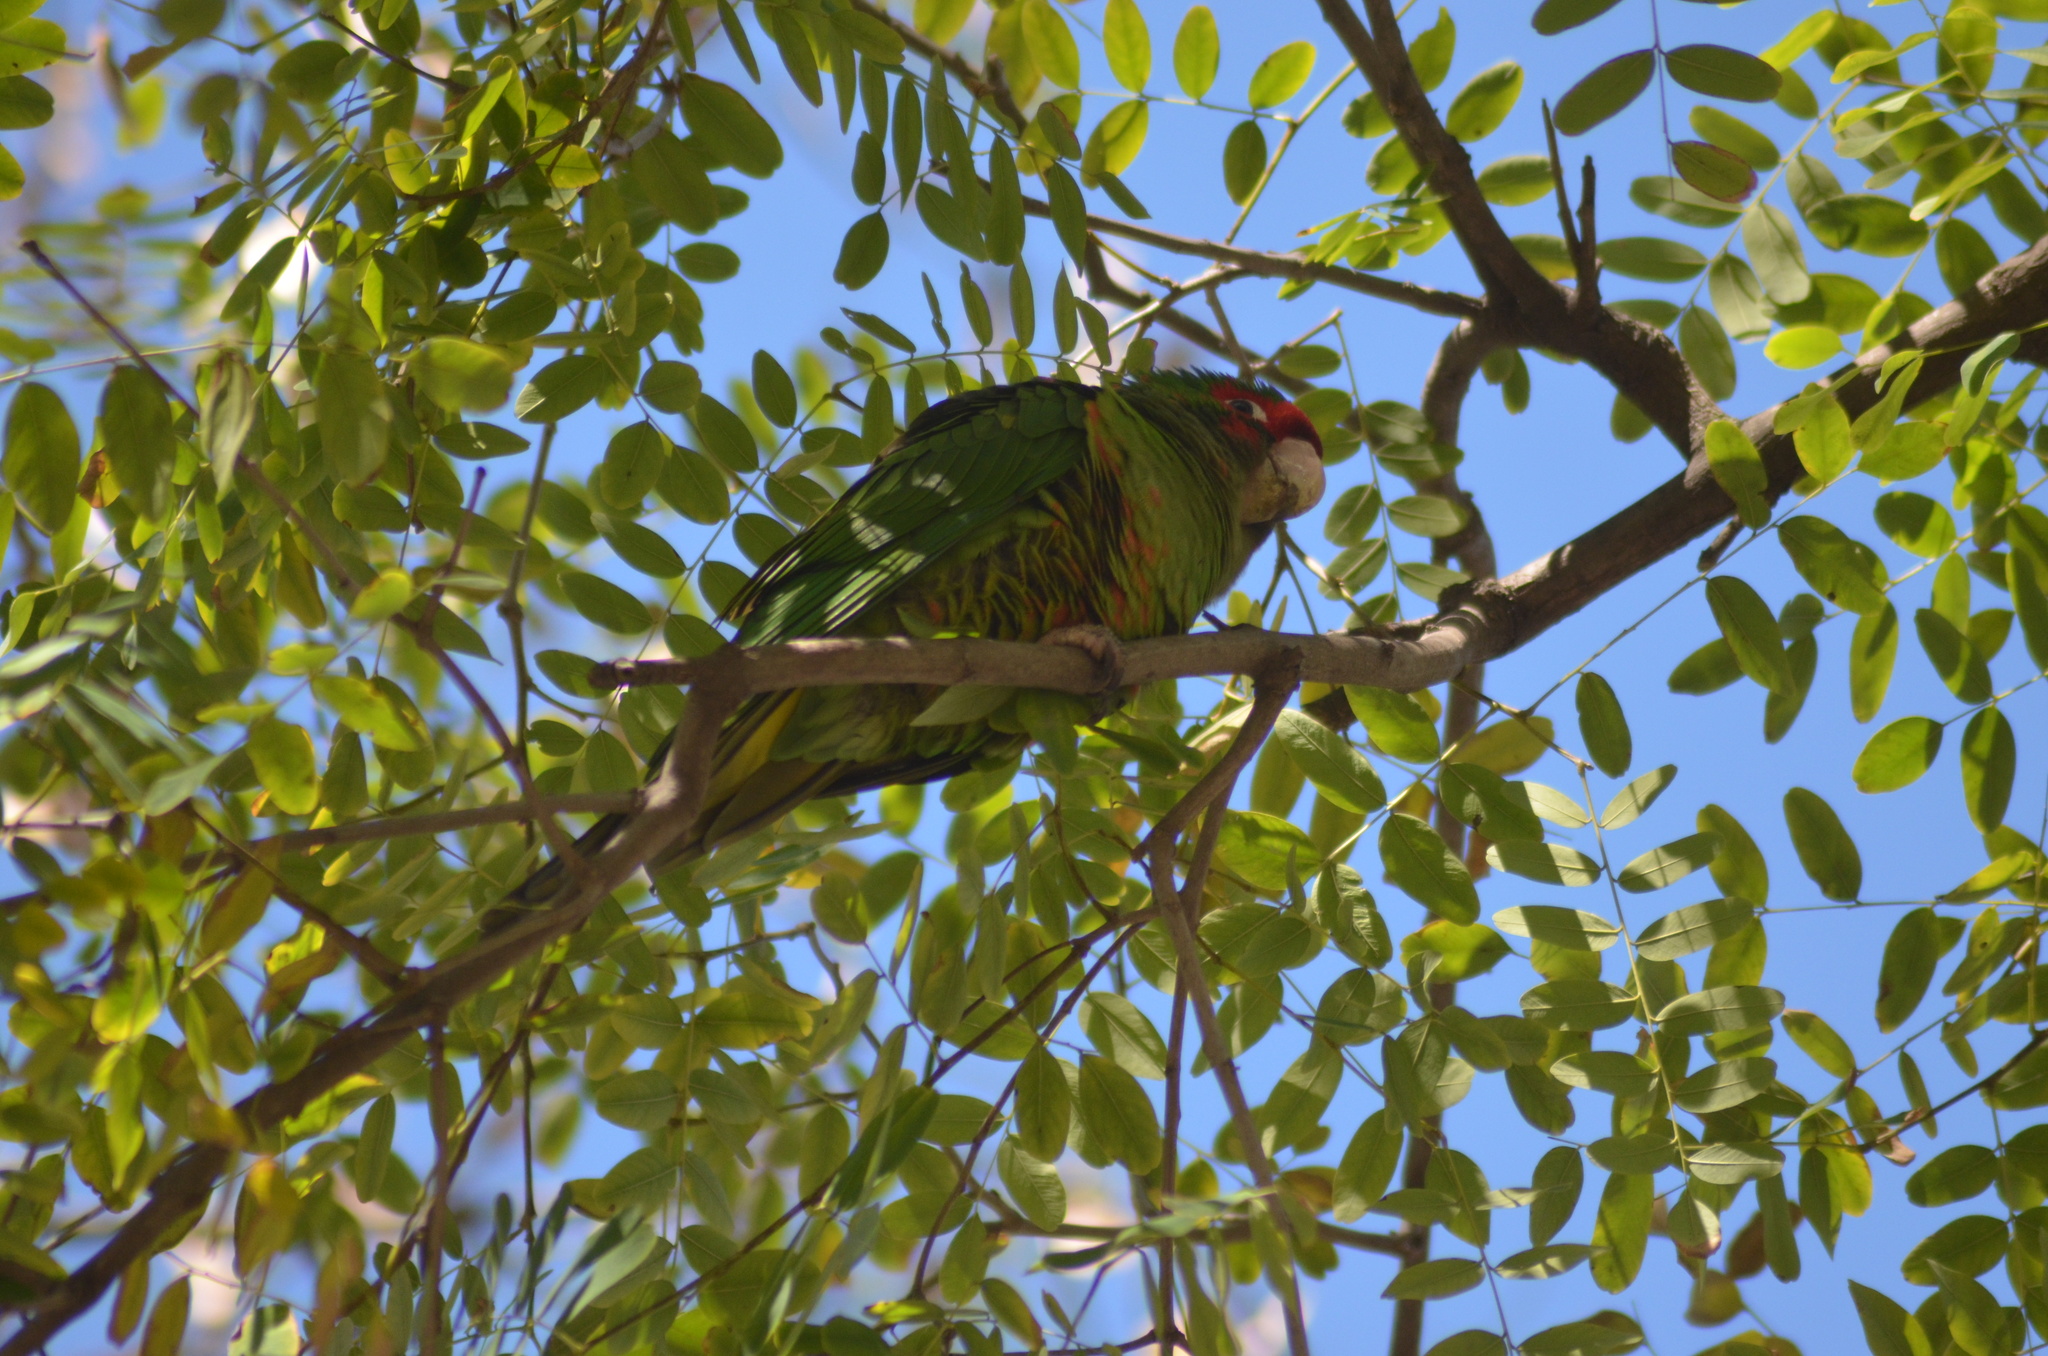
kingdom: Animalia
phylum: Chordata
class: Aves
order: Psittaciformes
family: Psittacidae
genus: Aratinga
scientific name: Aratinga mitrata
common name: Mitred parakeet
